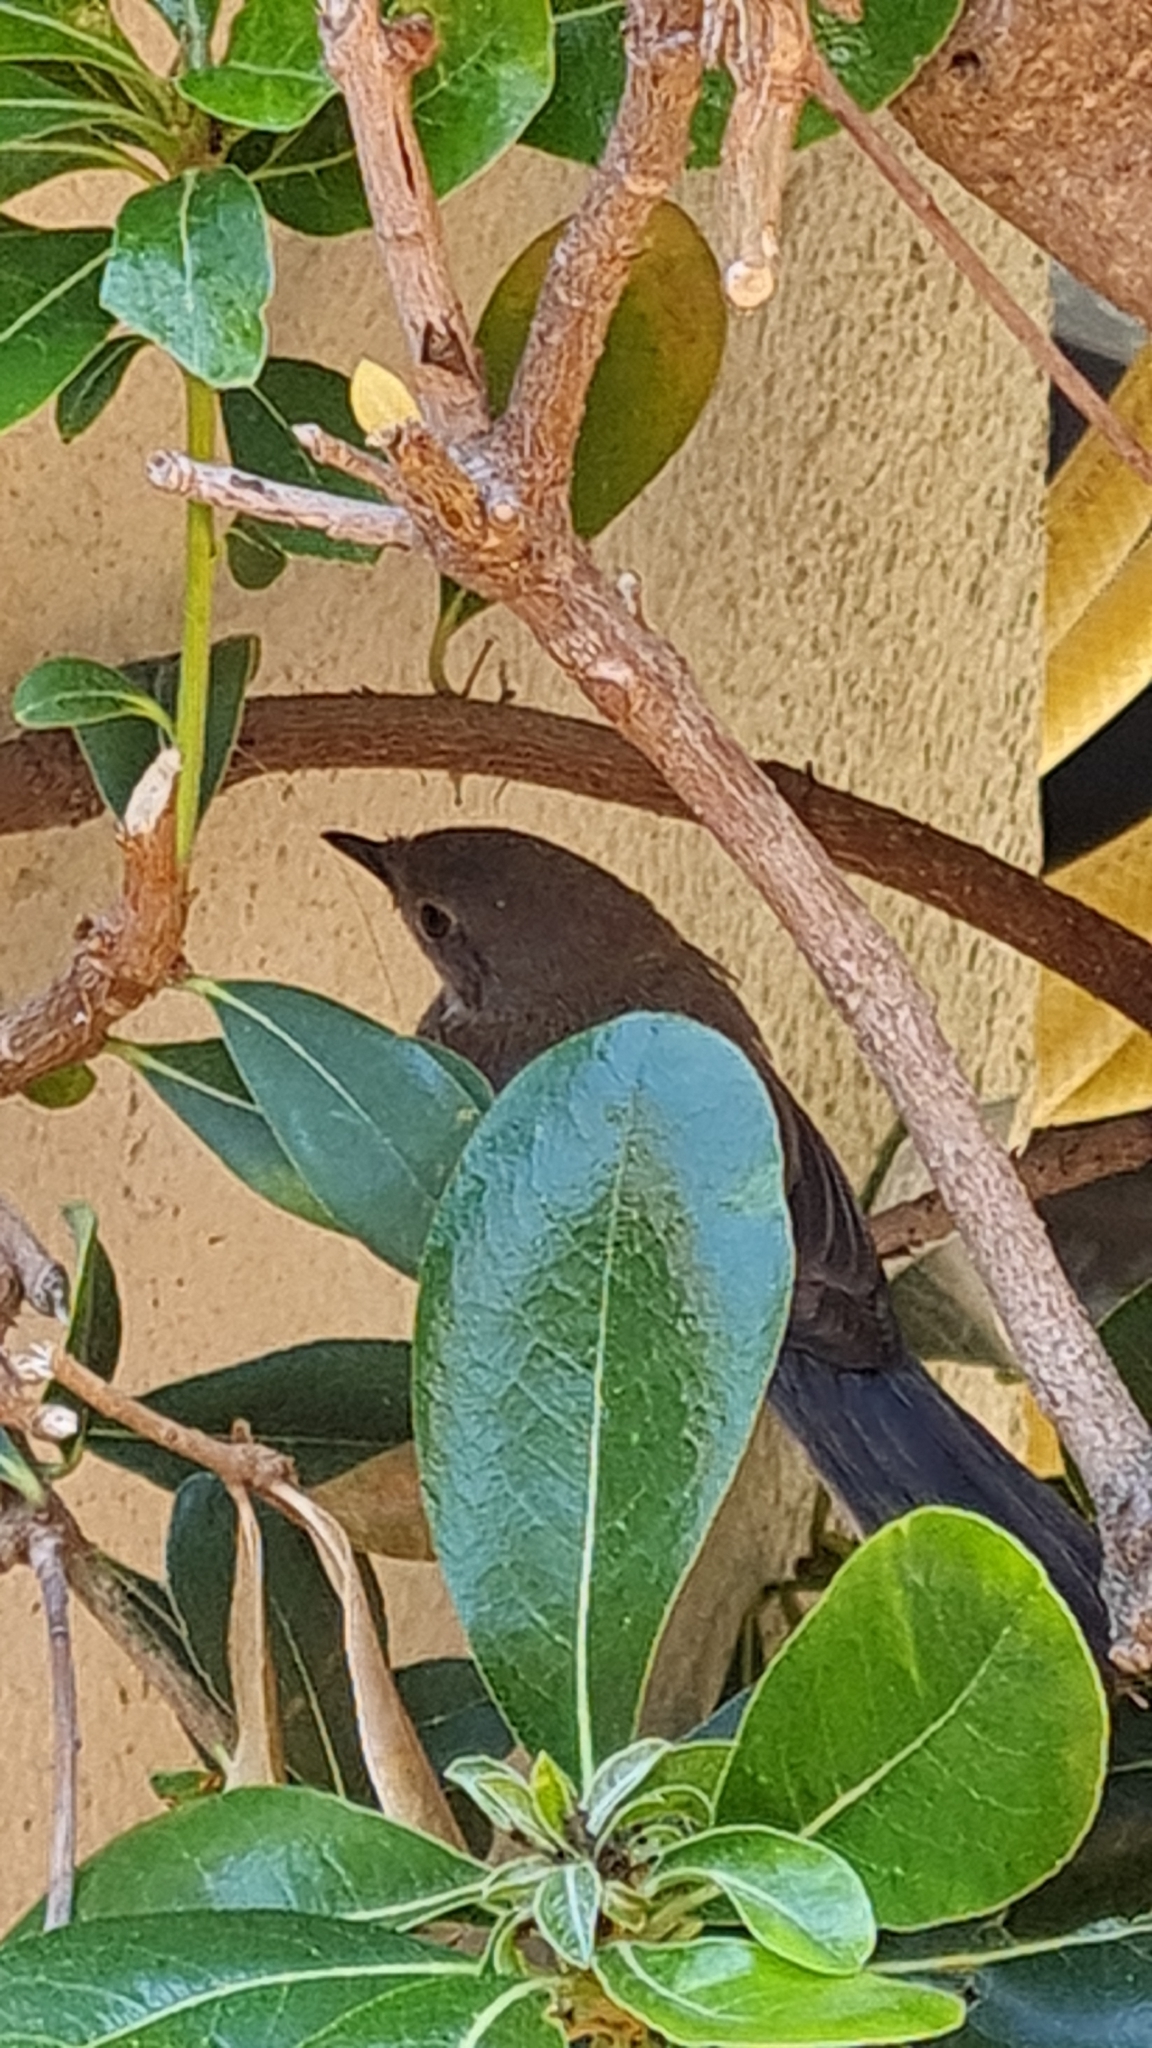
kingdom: Animalia
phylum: Chordata
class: Aves
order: Passeriformes
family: Sylviidae
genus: Curruca
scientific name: Curruca melanocephala
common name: Sardinian warbler
